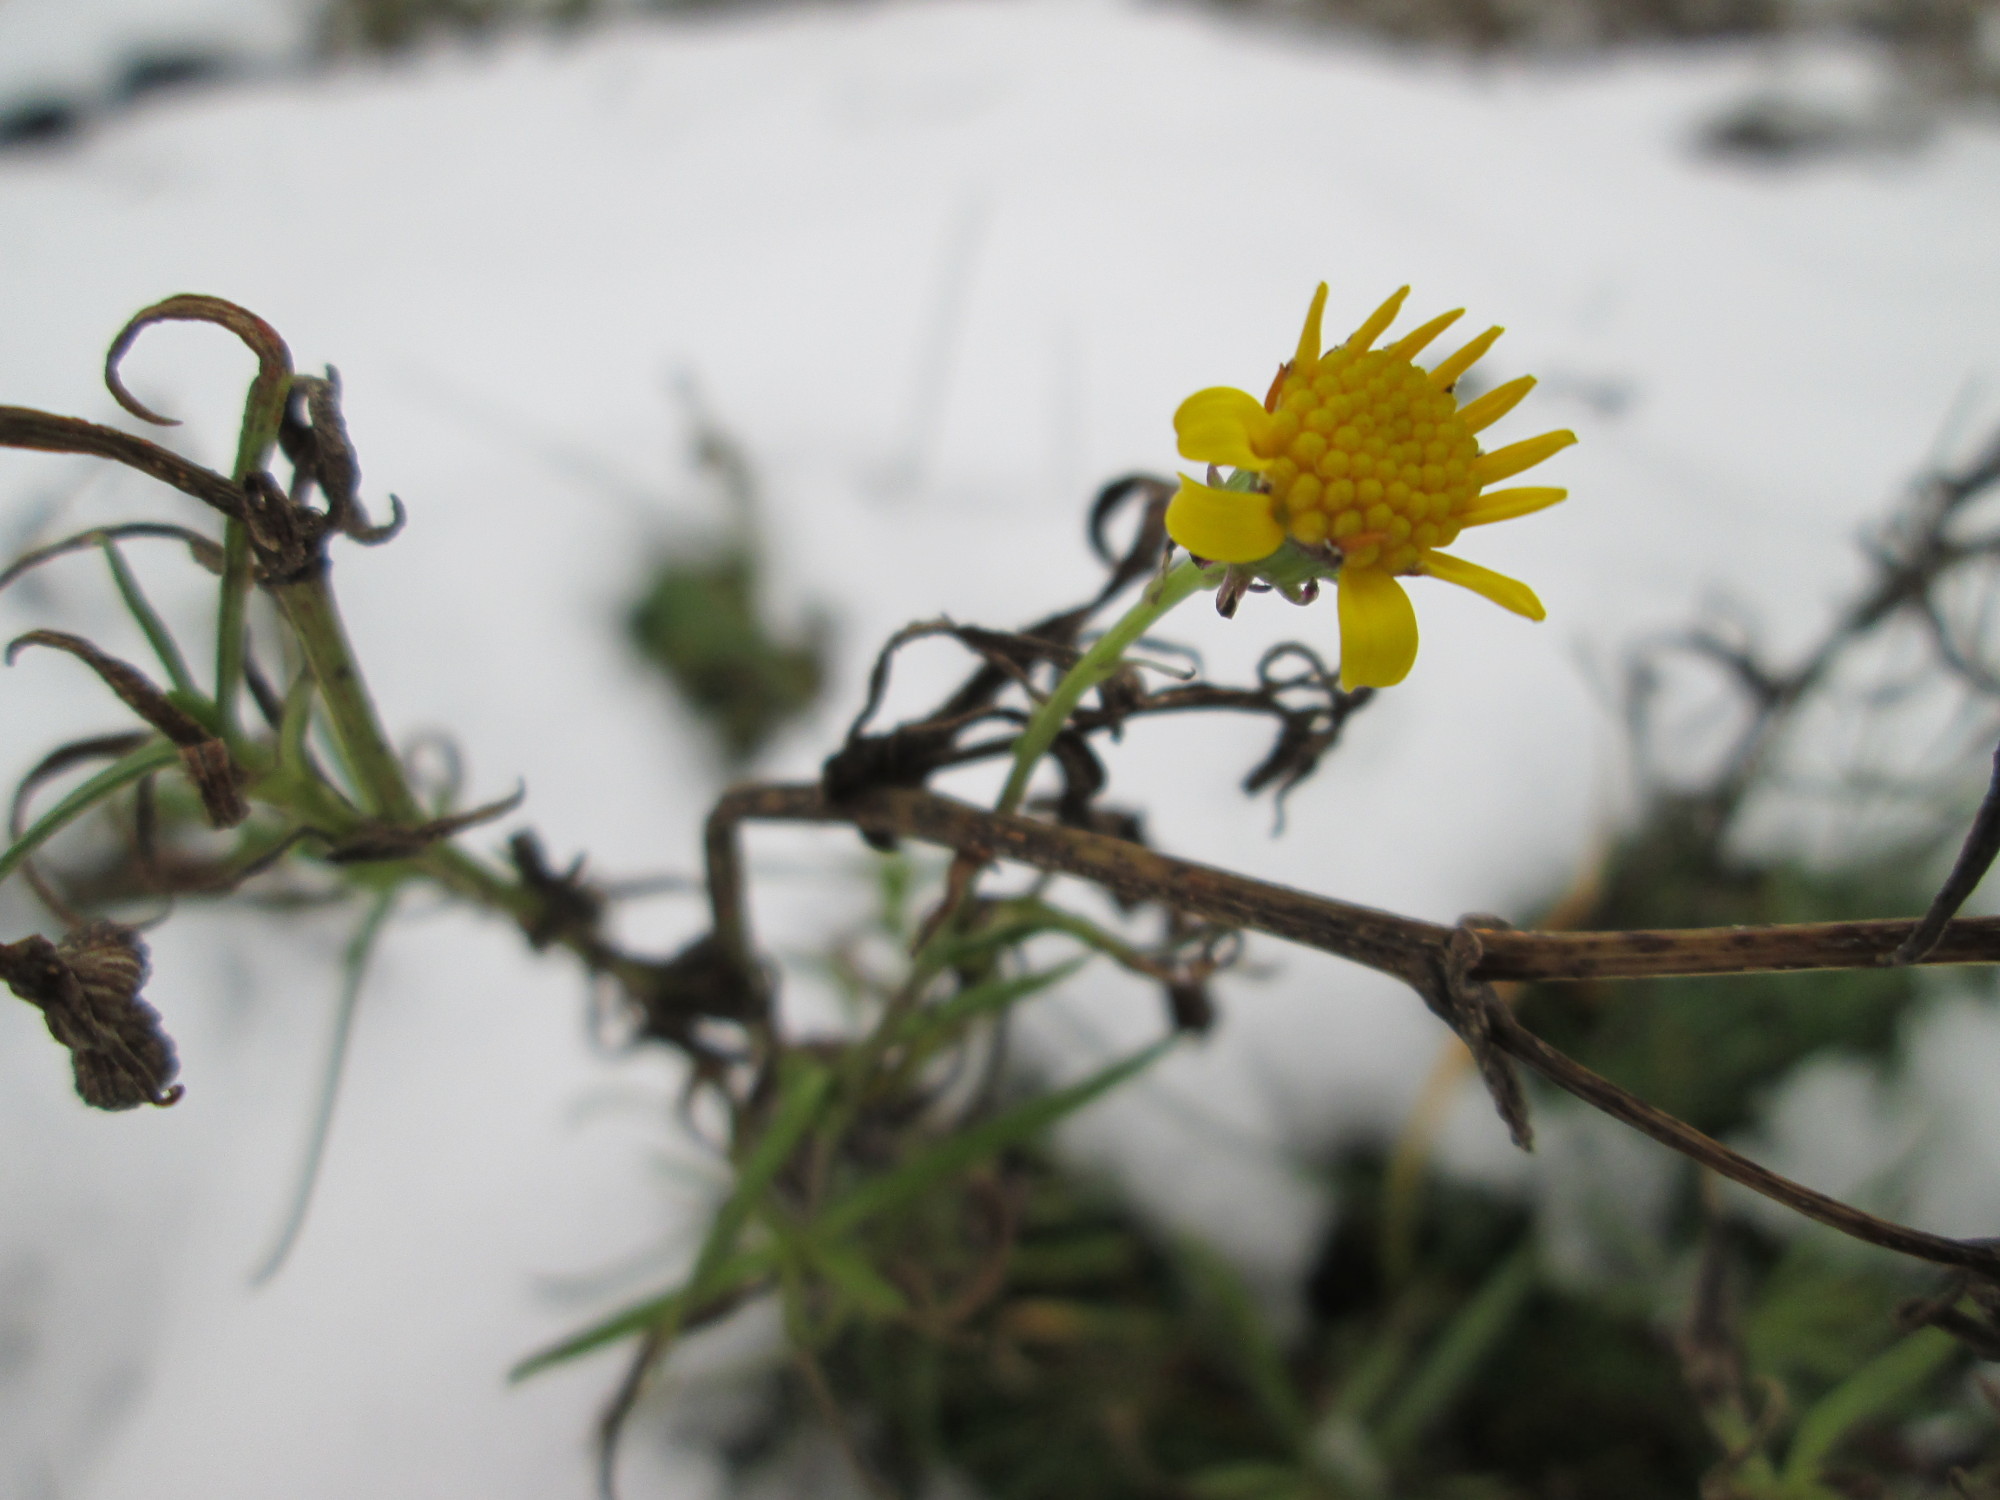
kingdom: Plantae
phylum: Tracheophyta
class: Magnoliopsida
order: Asterales
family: Asteraceae
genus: Senecio
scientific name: Senecio inaequidens
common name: Narrow-leaved ragwort
